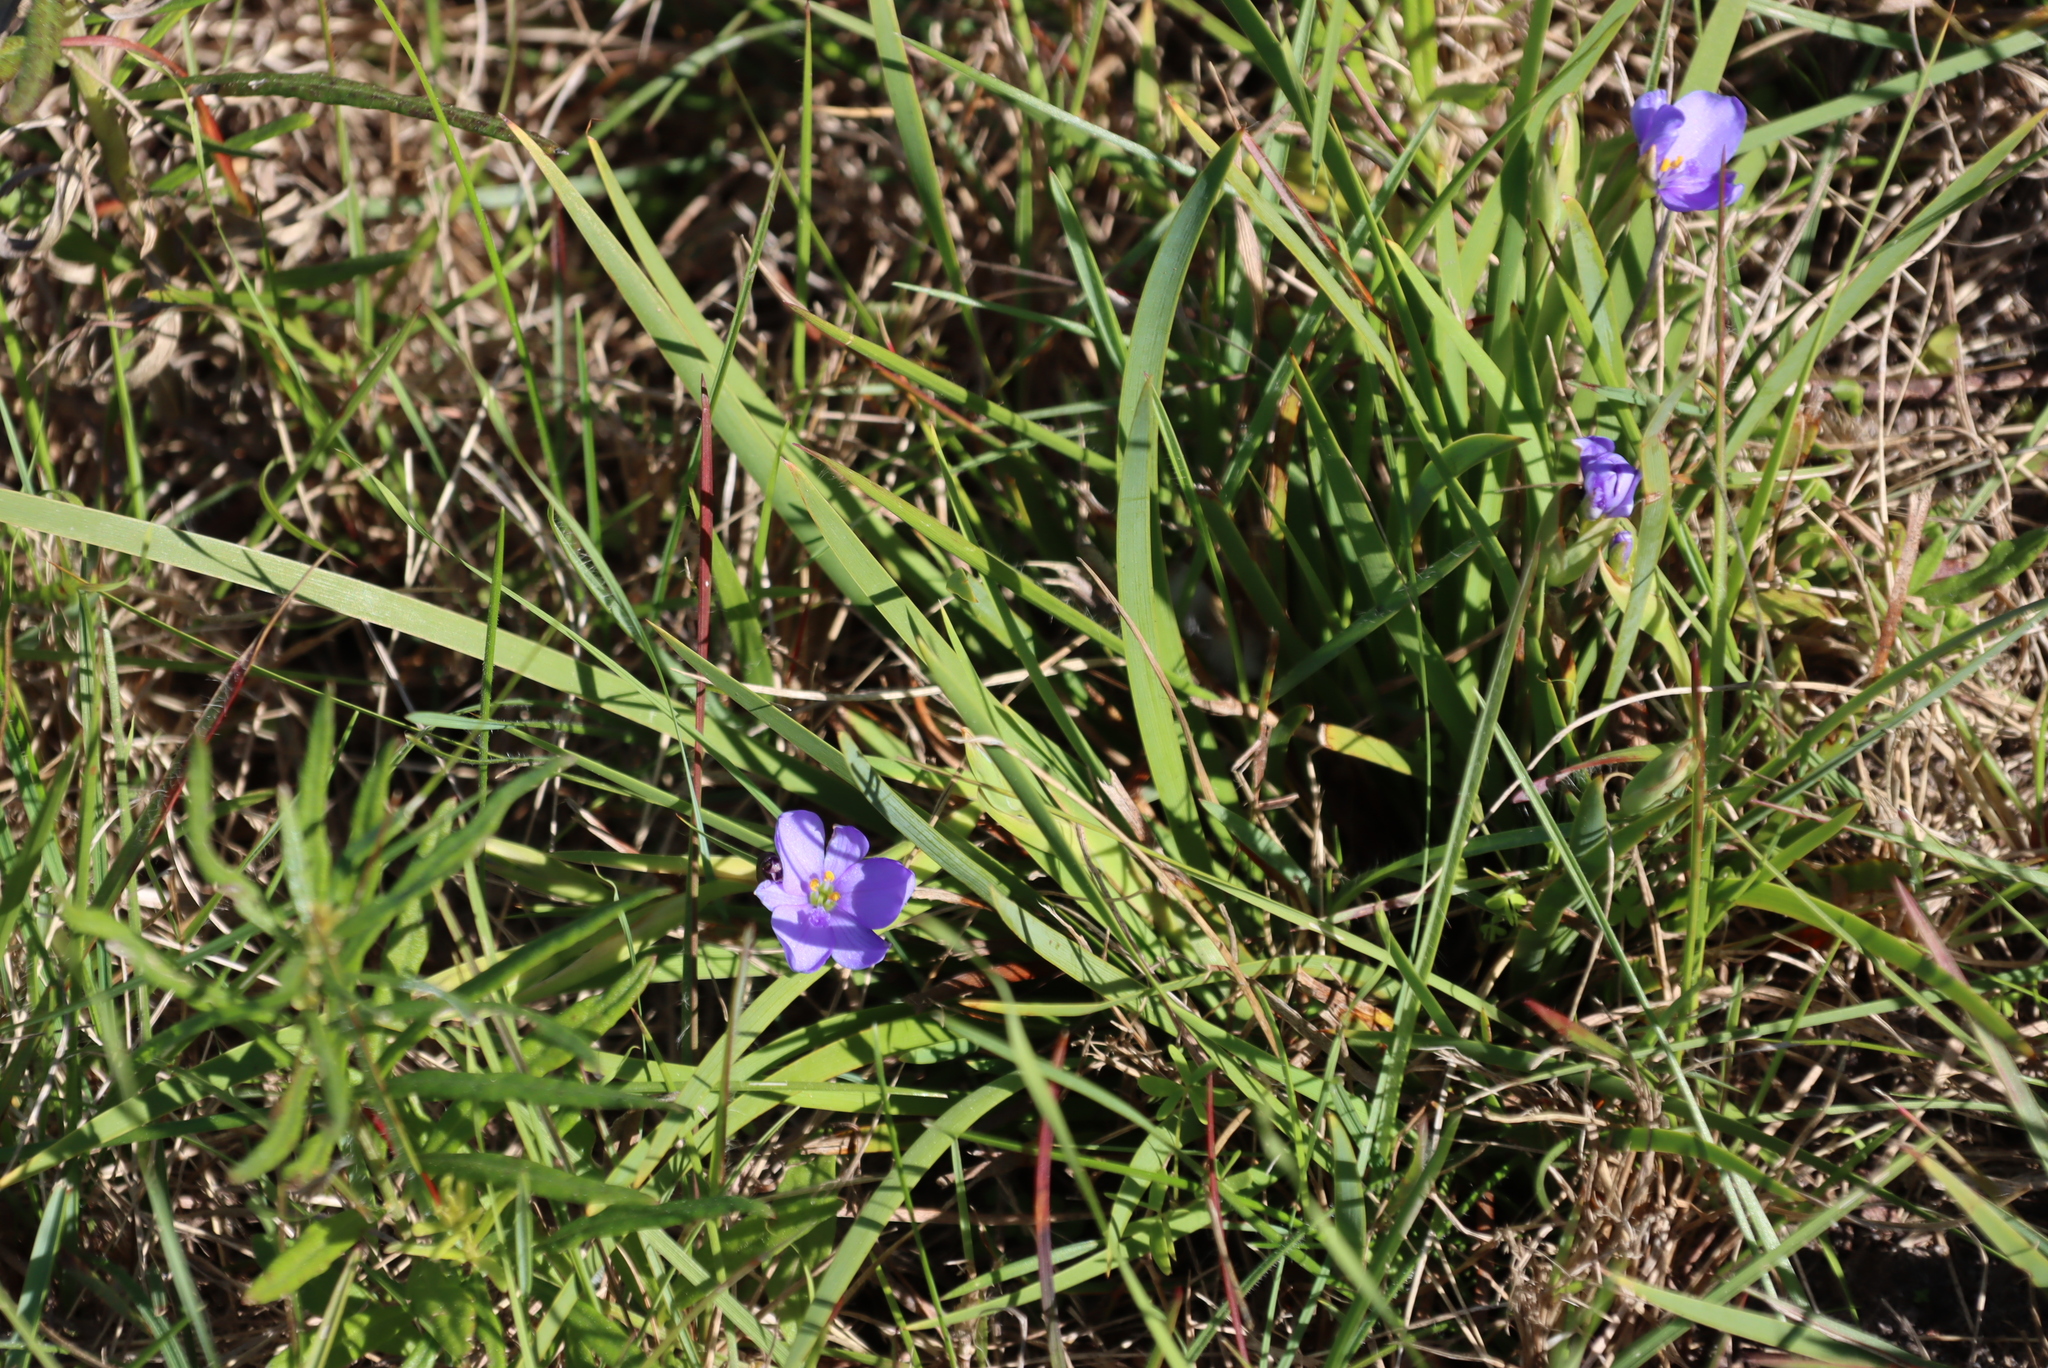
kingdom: Plantae
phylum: Tracheophyta
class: Liliopsida
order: Asparagales
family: Iridaceae
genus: Aristea
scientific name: Aristea pusilla
